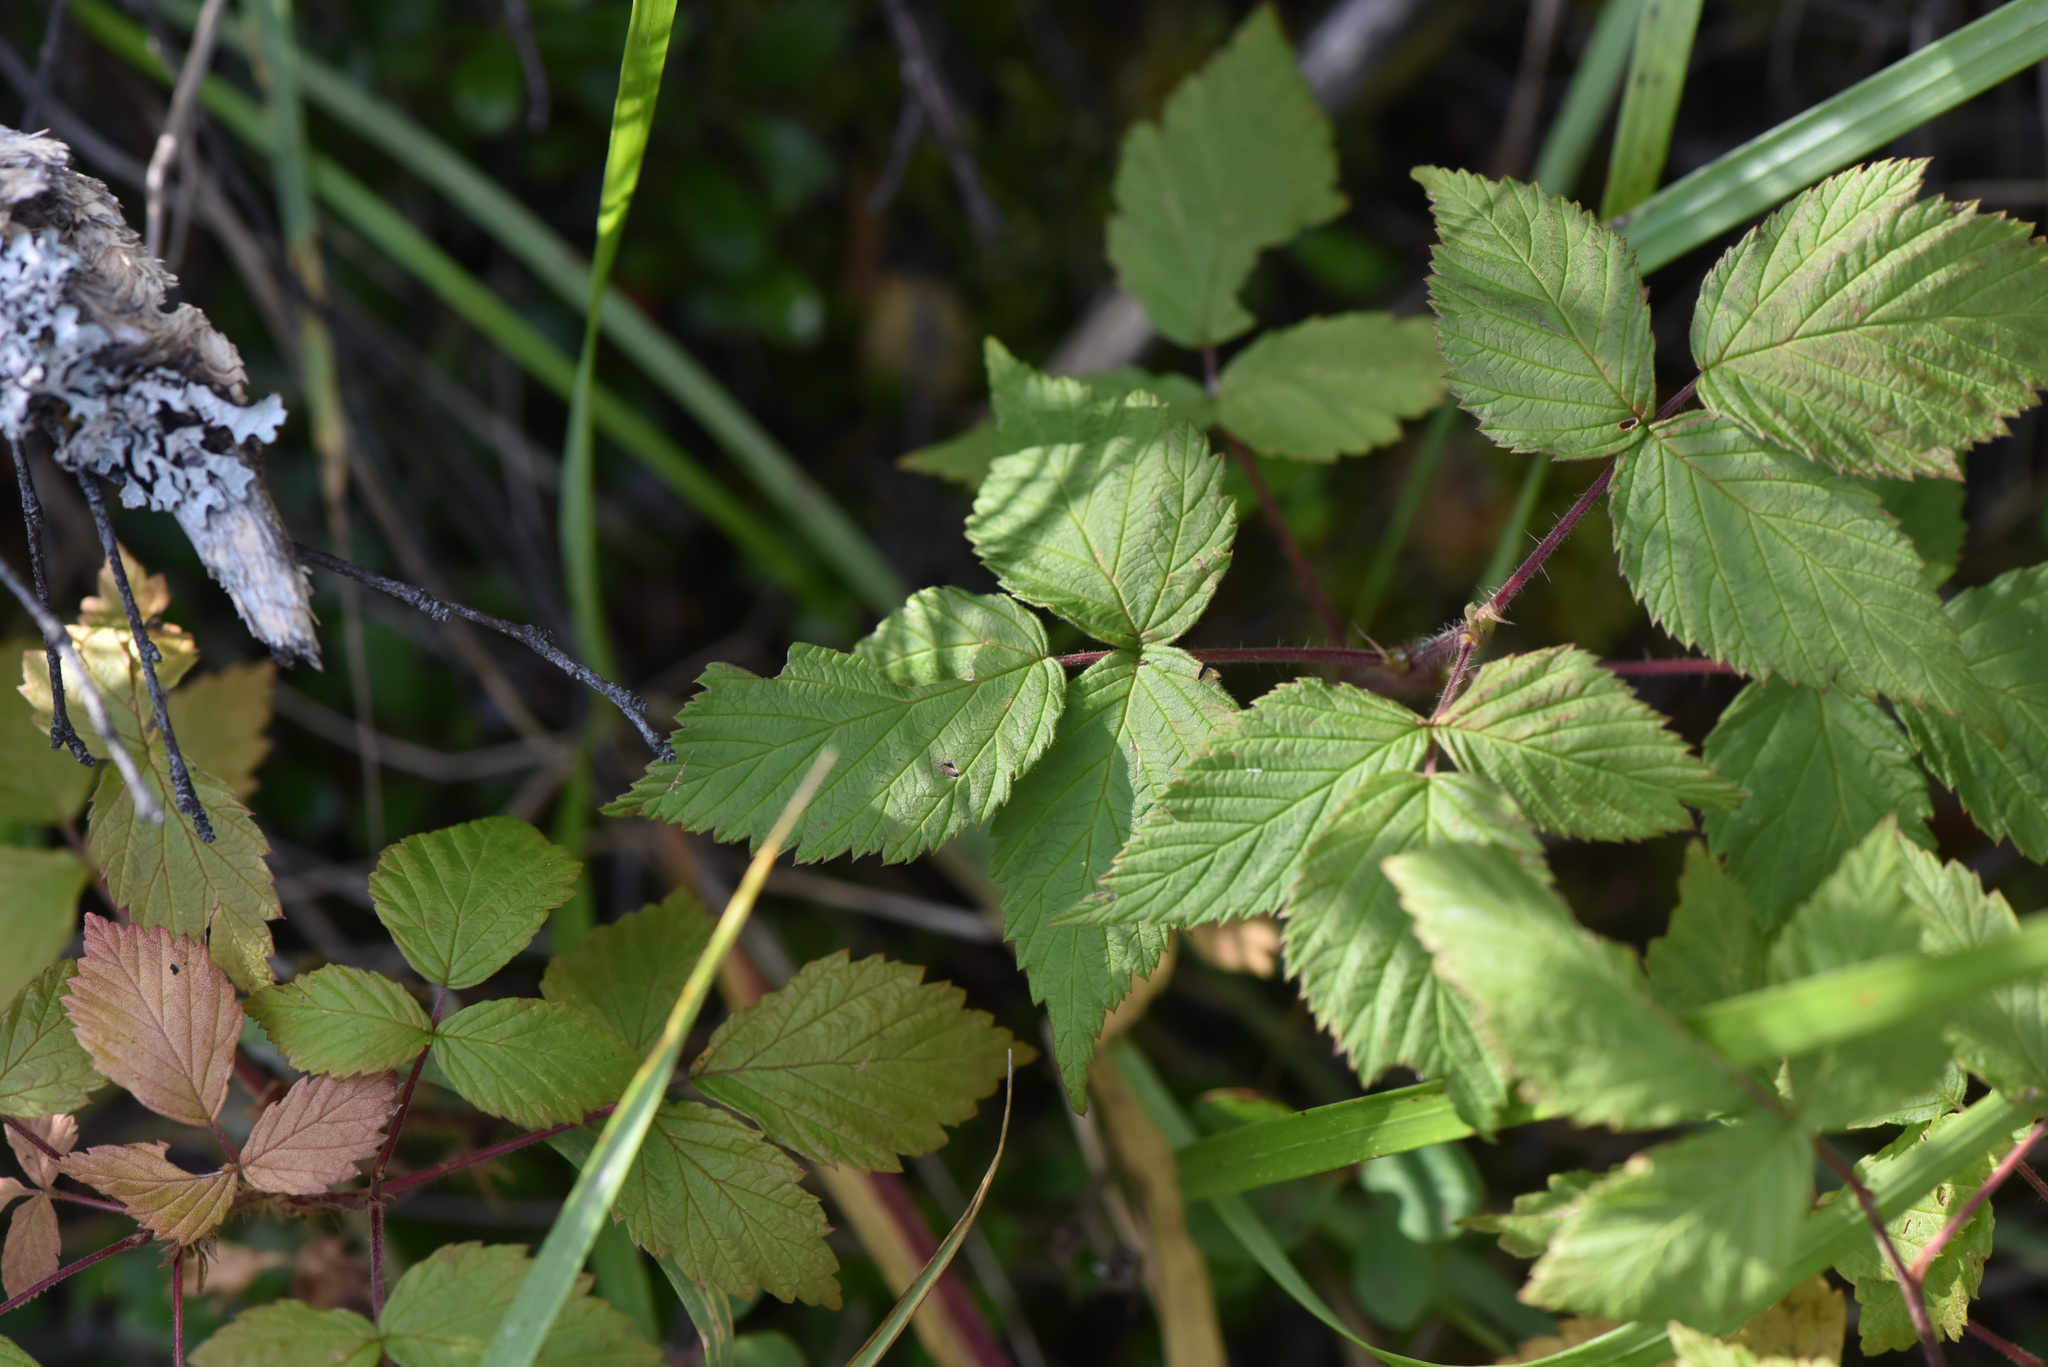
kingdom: Plantae
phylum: Tracheophyta
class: Magnoliopsida
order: Rosales
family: Rosaceae
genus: Rubus
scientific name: Rubus idaeus
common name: Raspberry
